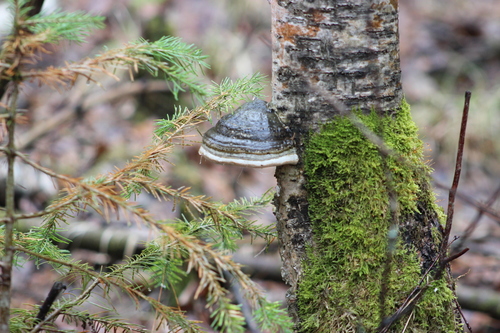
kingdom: Fungi
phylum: Basidiomycota
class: Agaricomycetes
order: Polyporales
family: Polyporaceae
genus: Fomes
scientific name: Fomes fomentarius
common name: Hoof fungus
